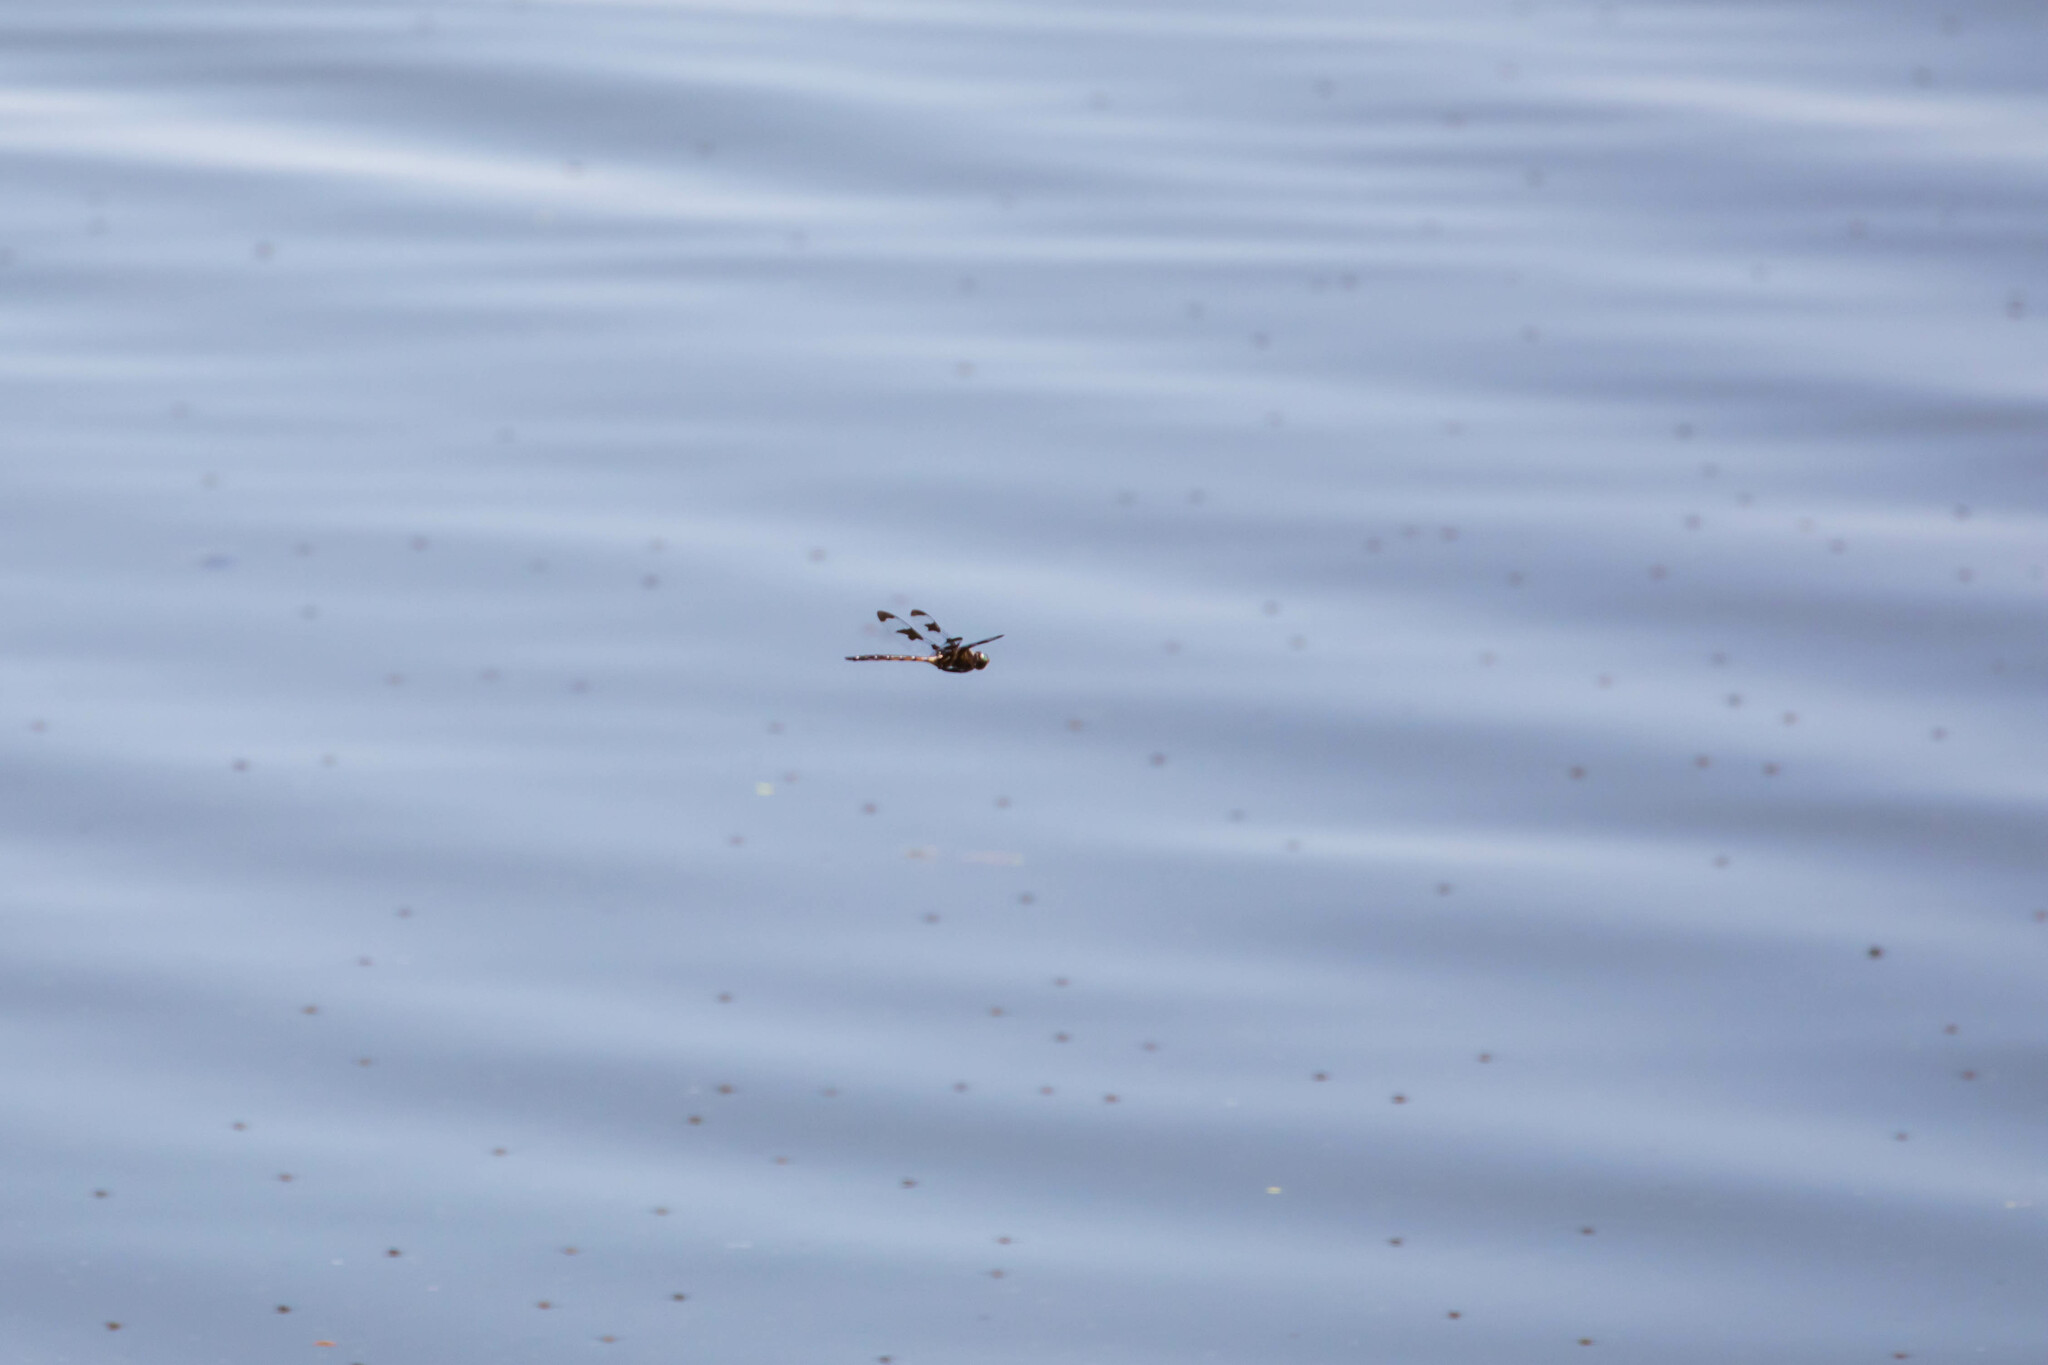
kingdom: Animalia
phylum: Arthropoda
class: Insecta
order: Odonata
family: Corduliidae
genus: Epitheca
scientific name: Epitheca princeps
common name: Prince baskettail
